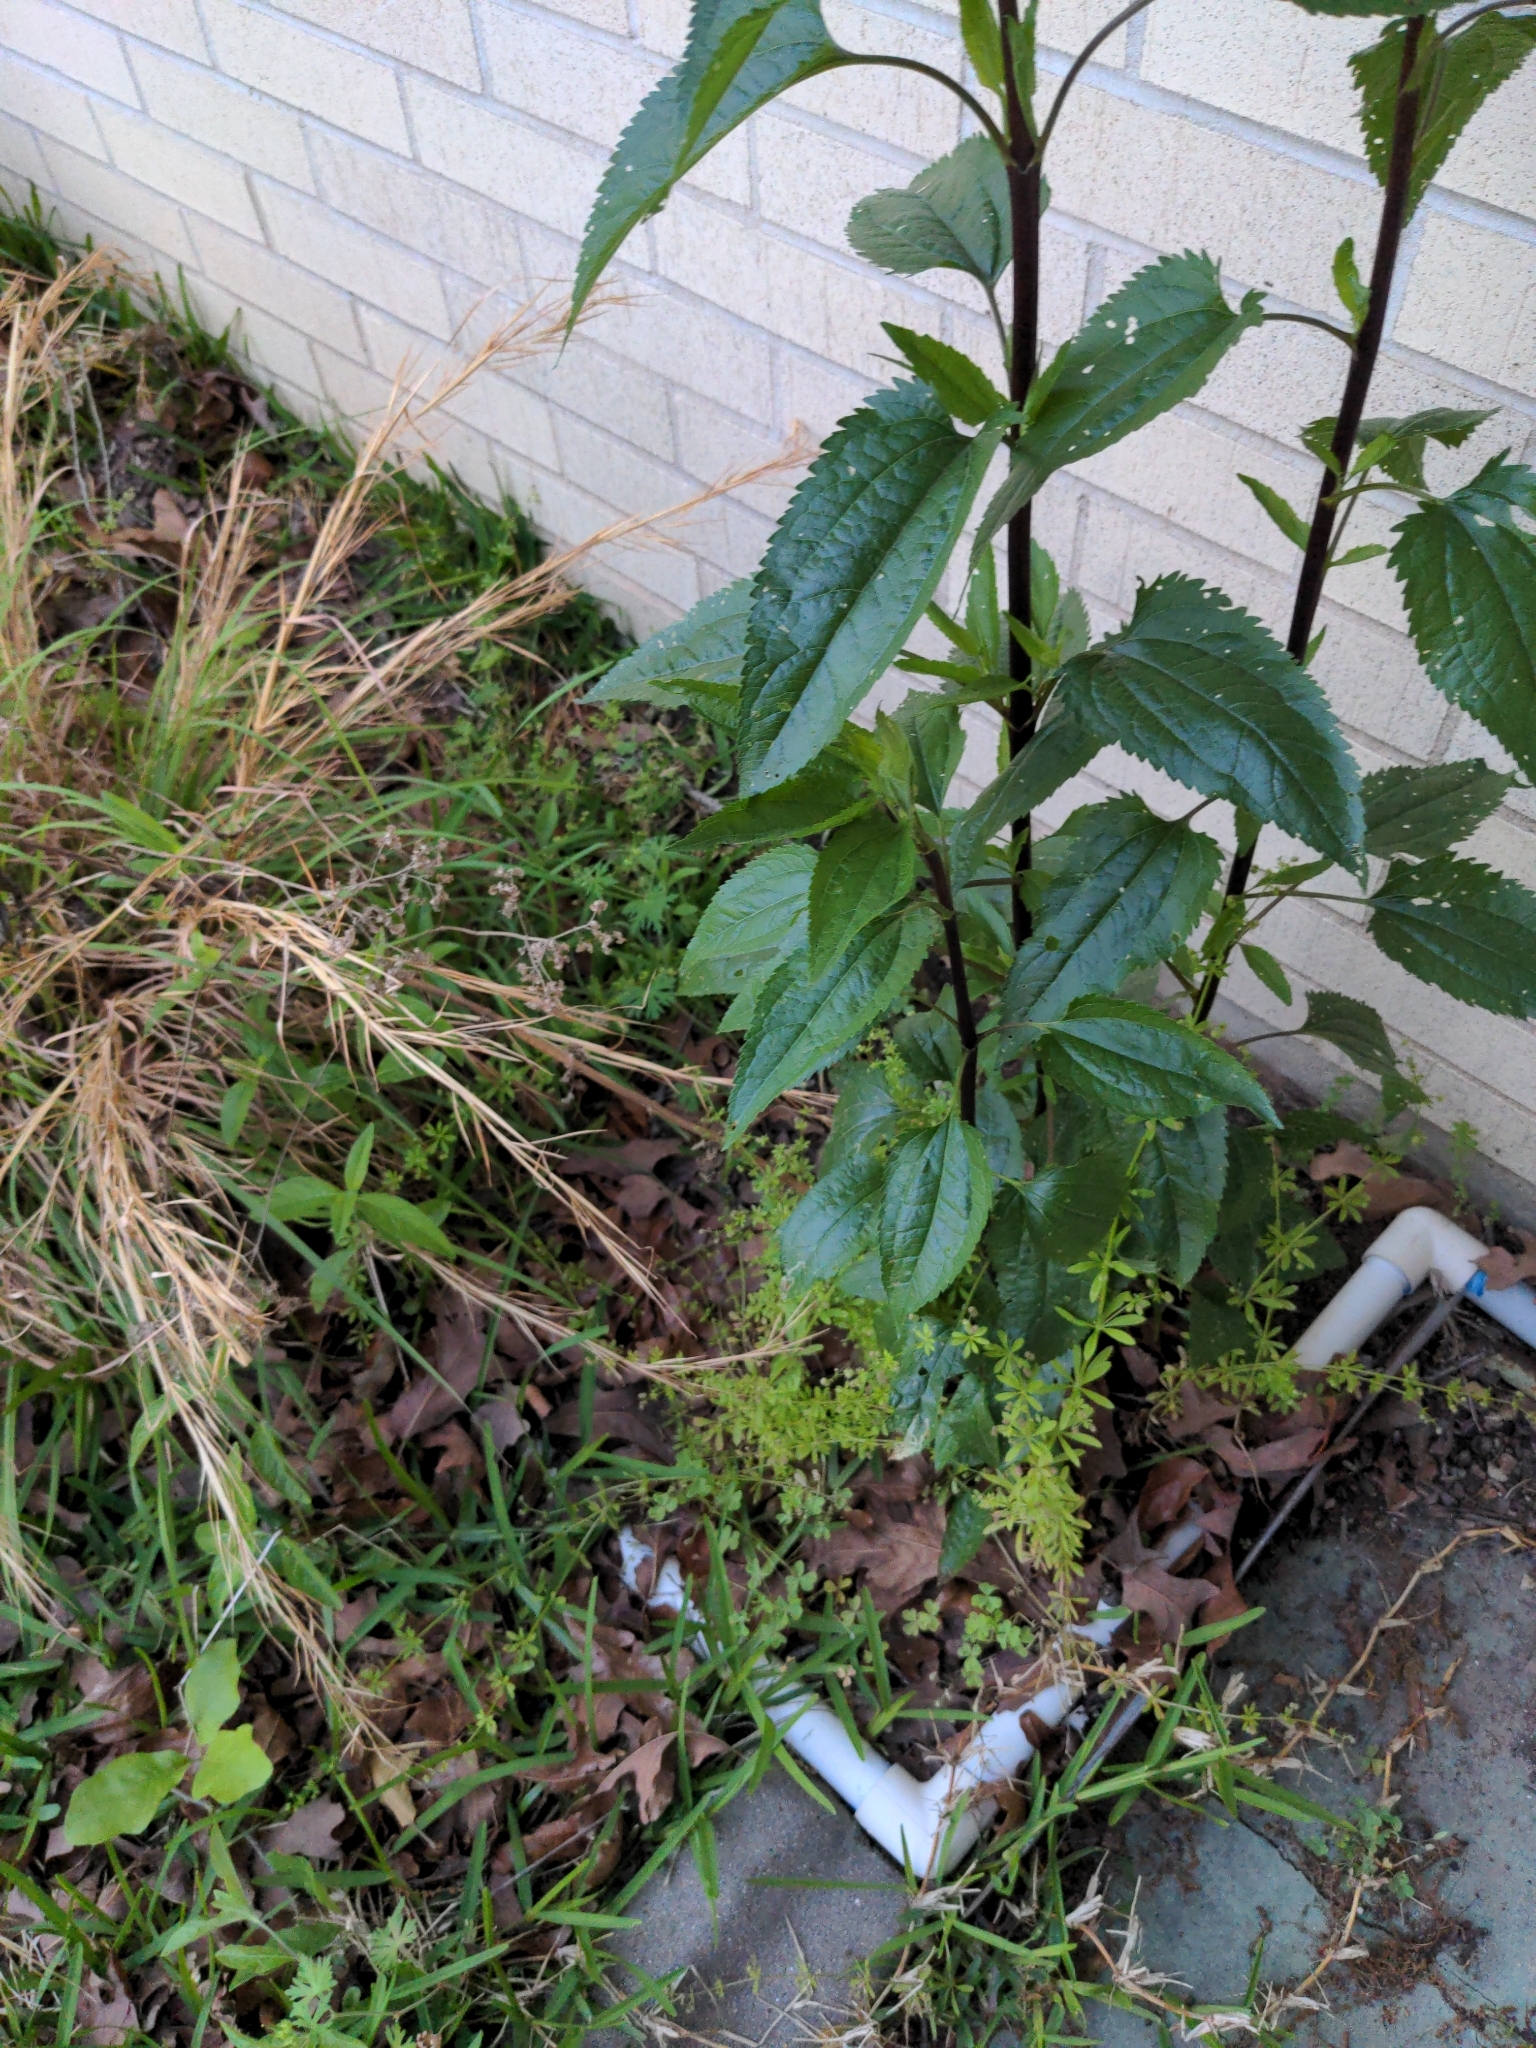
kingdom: Plantae
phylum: Tracheophyta
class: Magnoliopsida
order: Asterales
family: Asteraceae
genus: Eupatorium
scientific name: Eupatorium serotinum
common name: Late boneset
